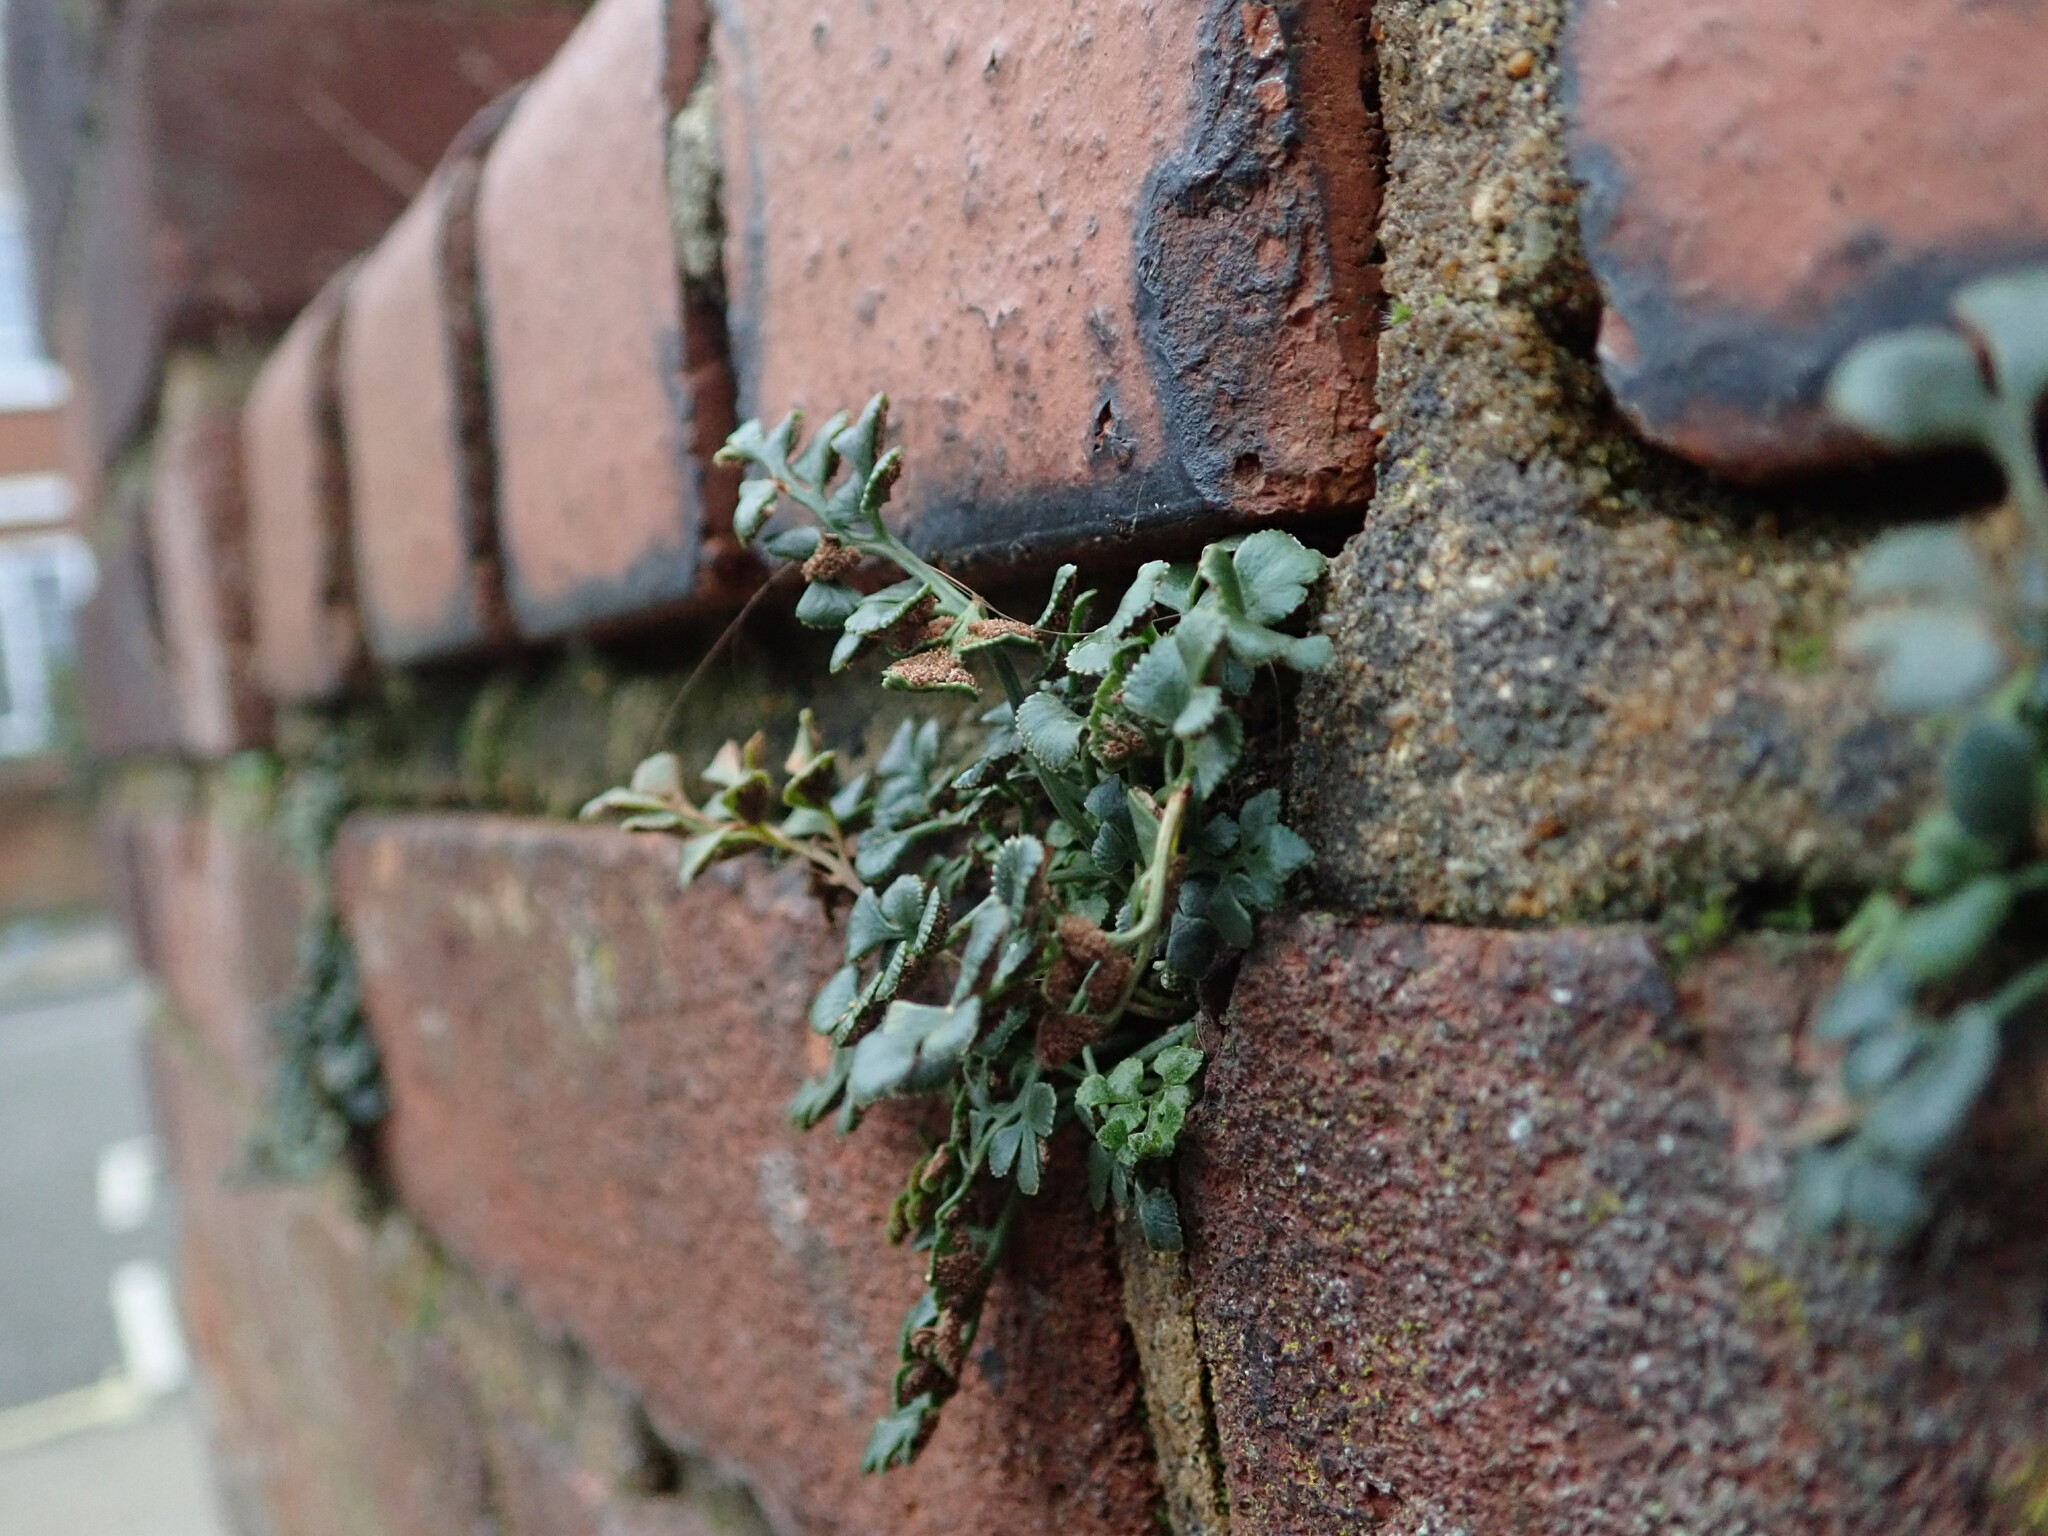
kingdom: Plantae
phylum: Tracheophyta
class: Polypodiopsida
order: Polypodiales
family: Aspleniaceae
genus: Asplenium
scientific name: Asplenium ruta-muraria
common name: Wall-rue
